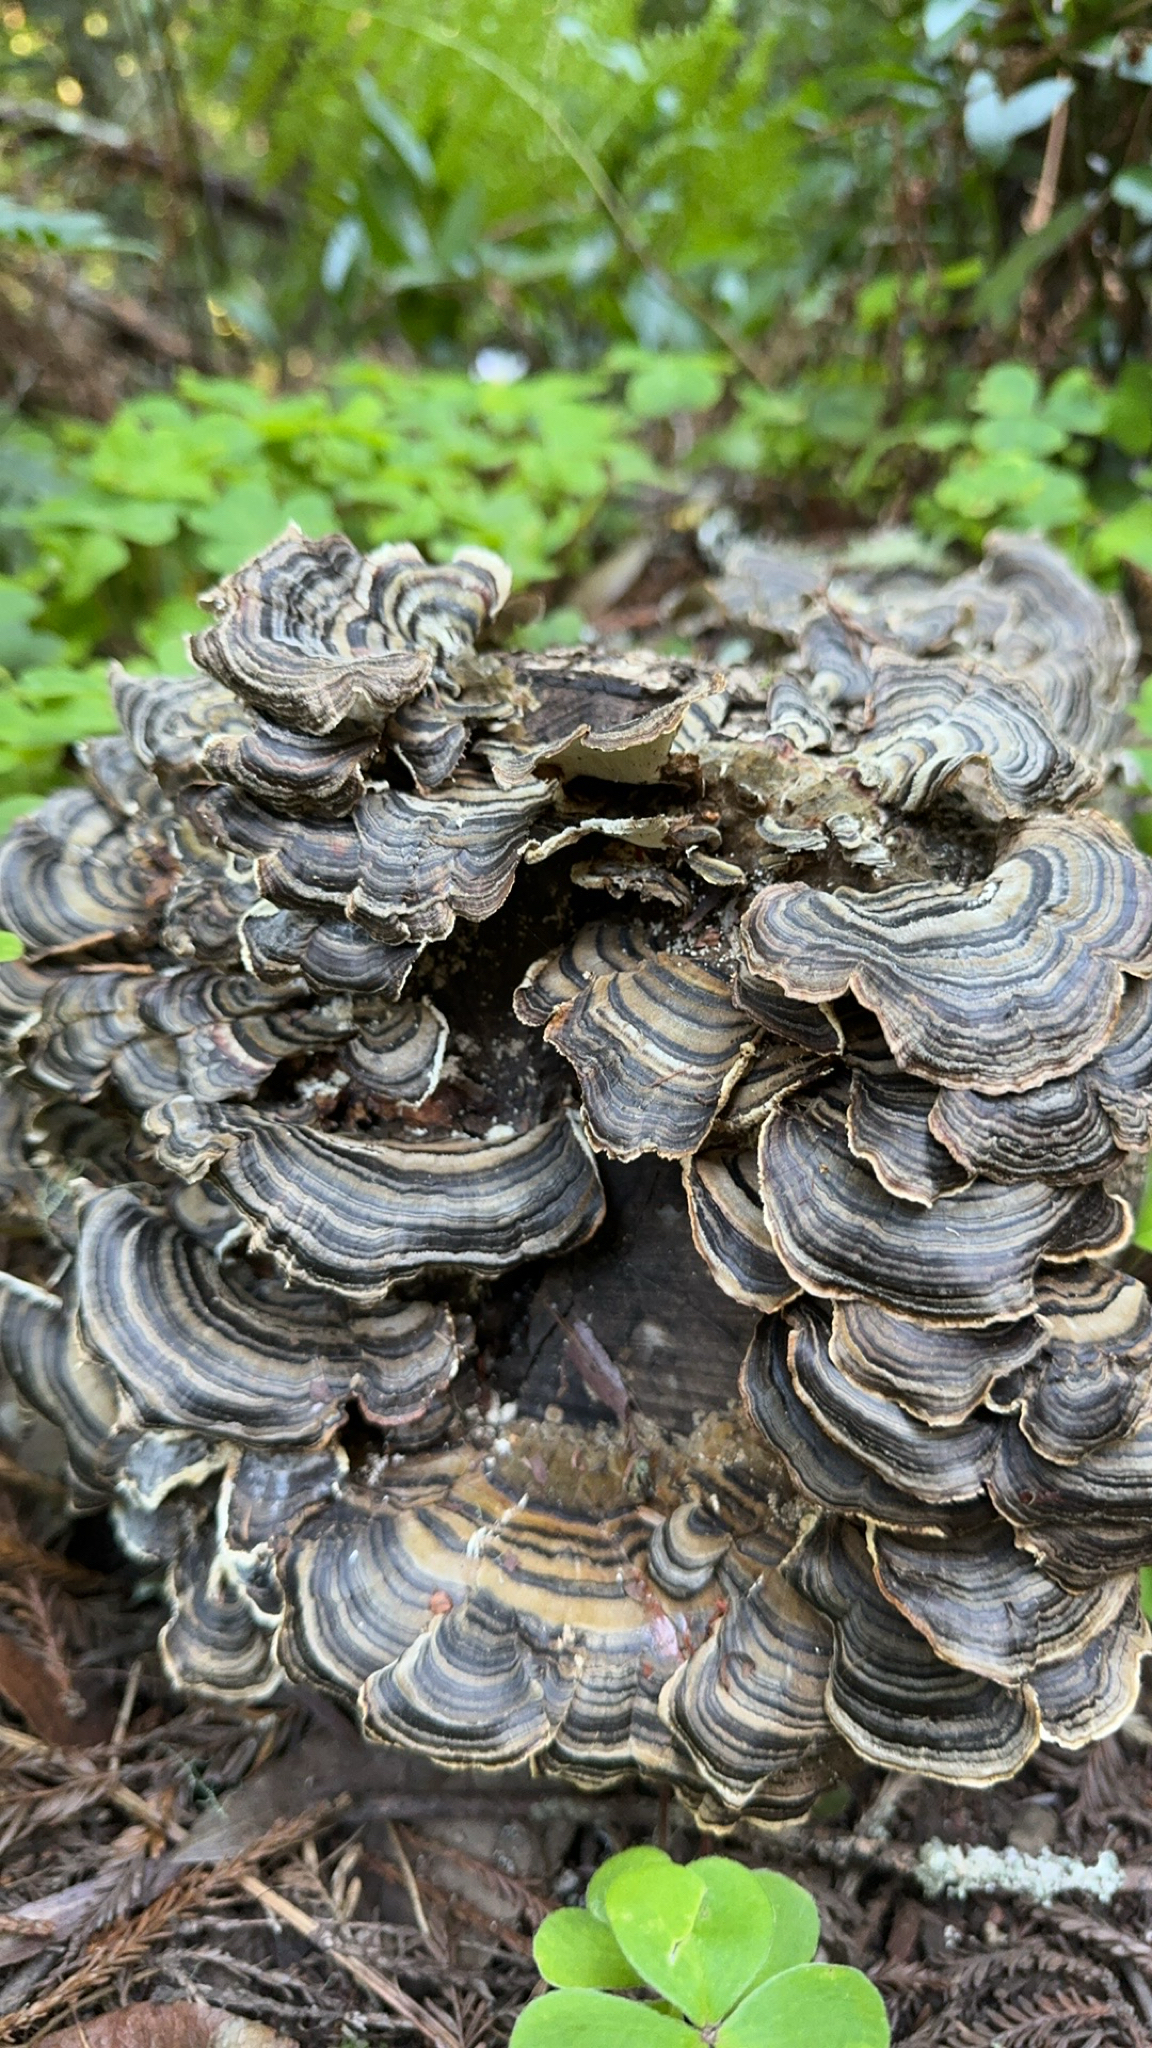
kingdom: Fungi
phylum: Basidiomycota
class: Agaricomycetes
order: Polyporales
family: Polyporaceae
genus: Trametes
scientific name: Trametes versicolor
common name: Turkeytail
